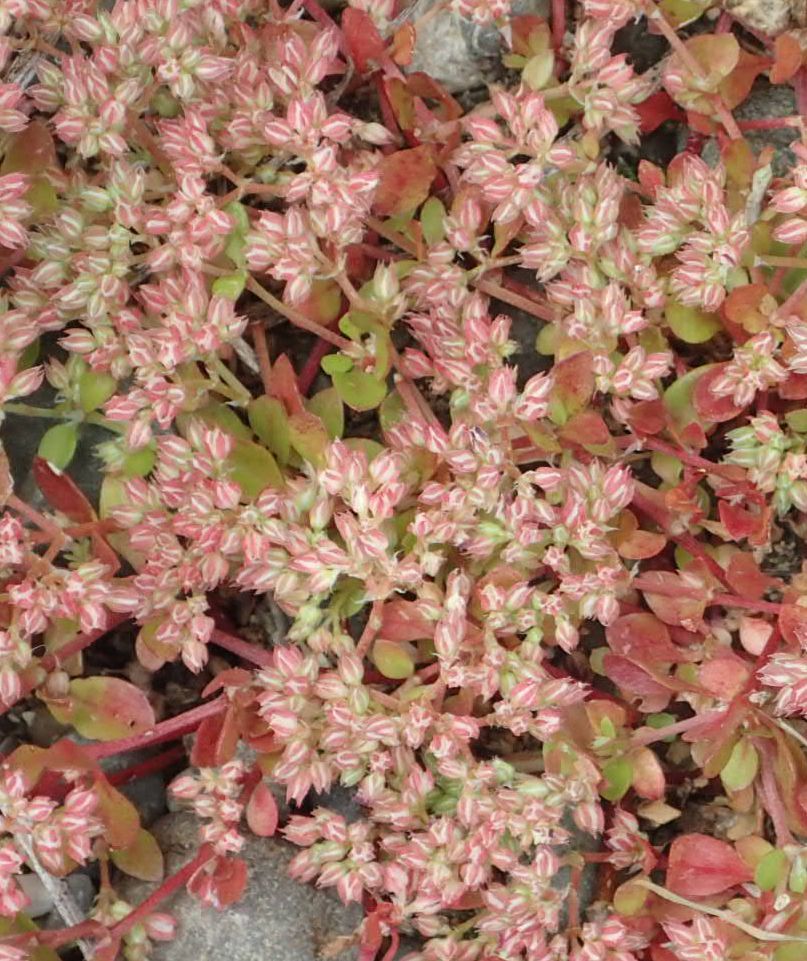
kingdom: Plantae
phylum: Tracheophyta
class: Magnoliopsida
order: Caryophyllales
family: Caryophyllaceae
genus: Polycarpon
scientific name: Polycarpon tetraphyllum
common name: Four-leaved all-seed
